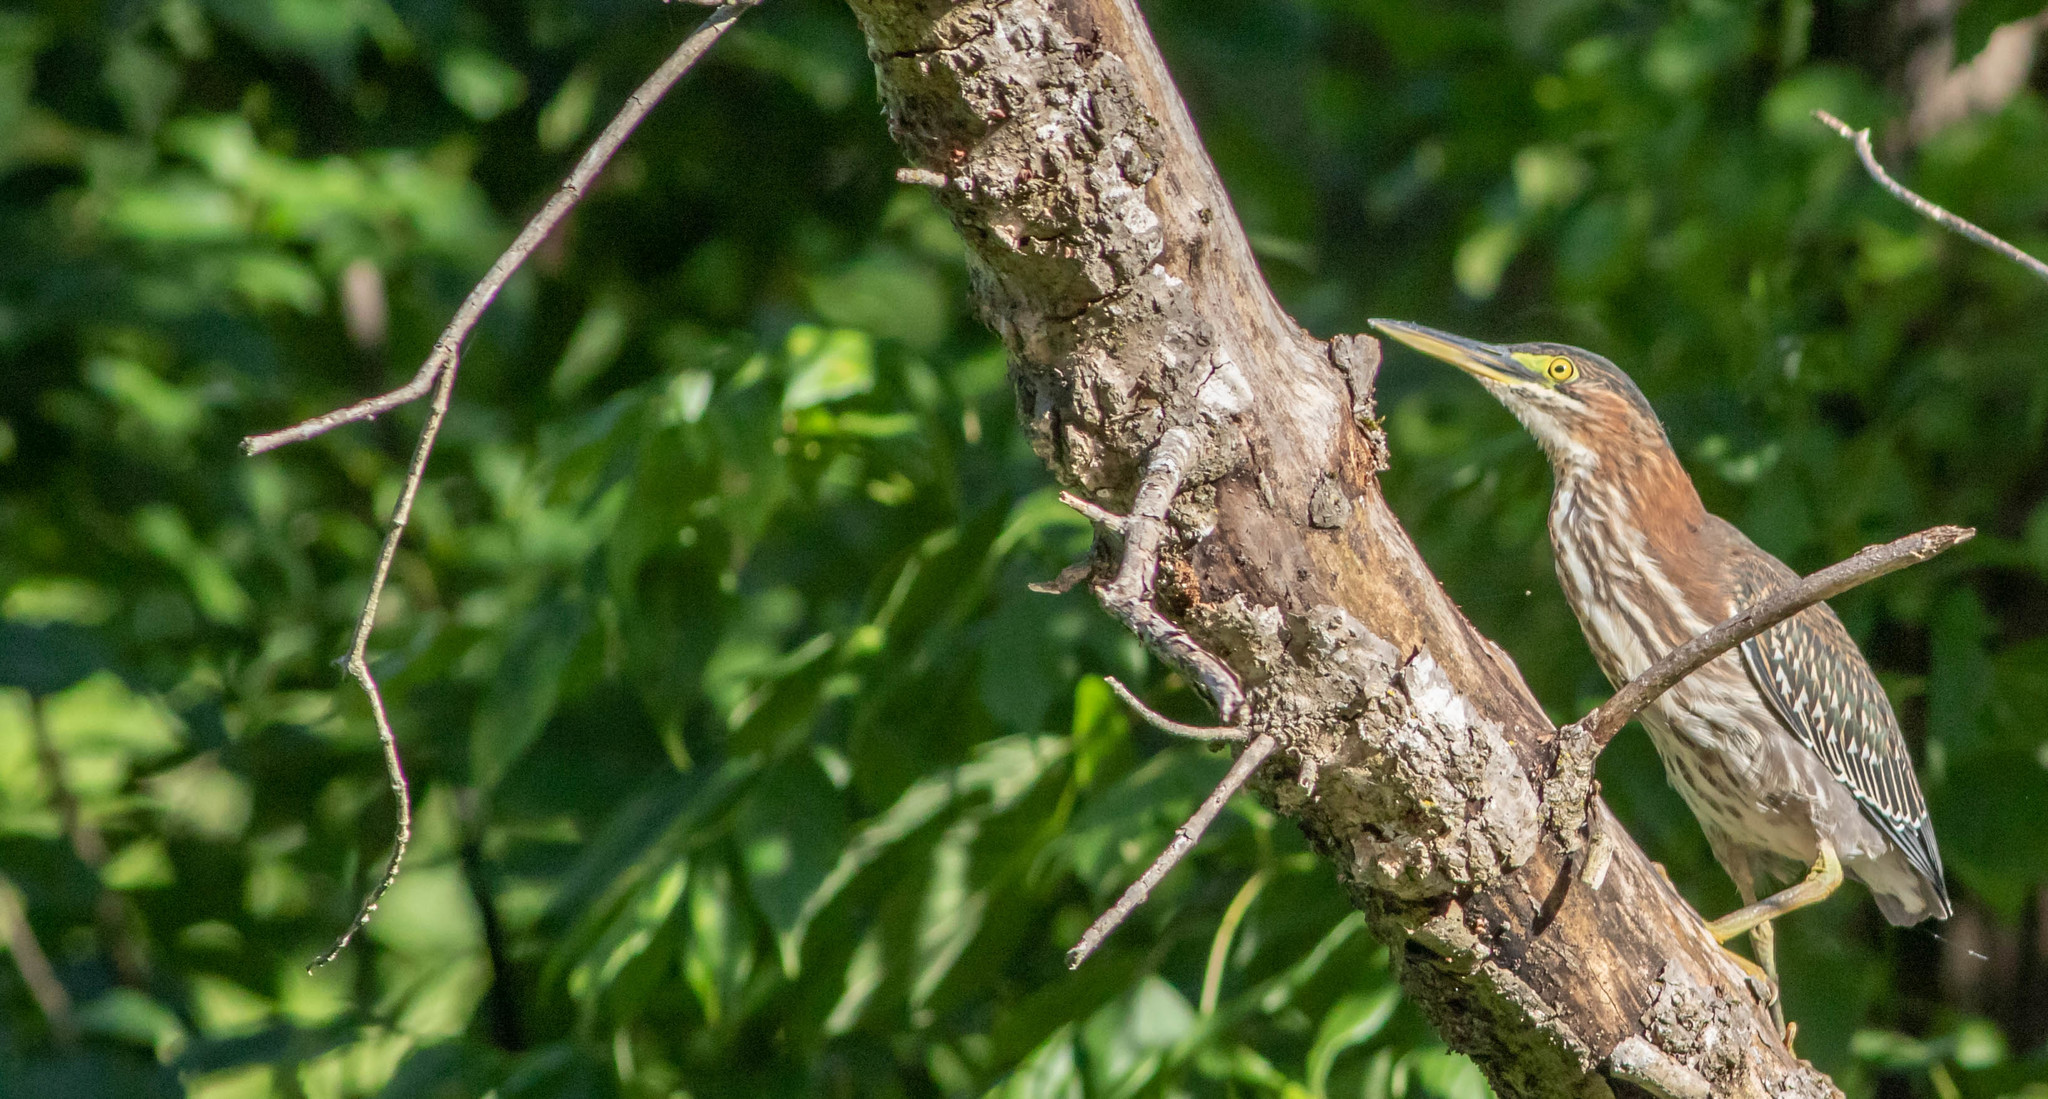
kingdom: Animalia
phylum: Chordata
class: Aves
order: Pelecaniformes
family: Ardeidae
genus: Butorides
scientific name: Butorides virescens
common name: Green heron
